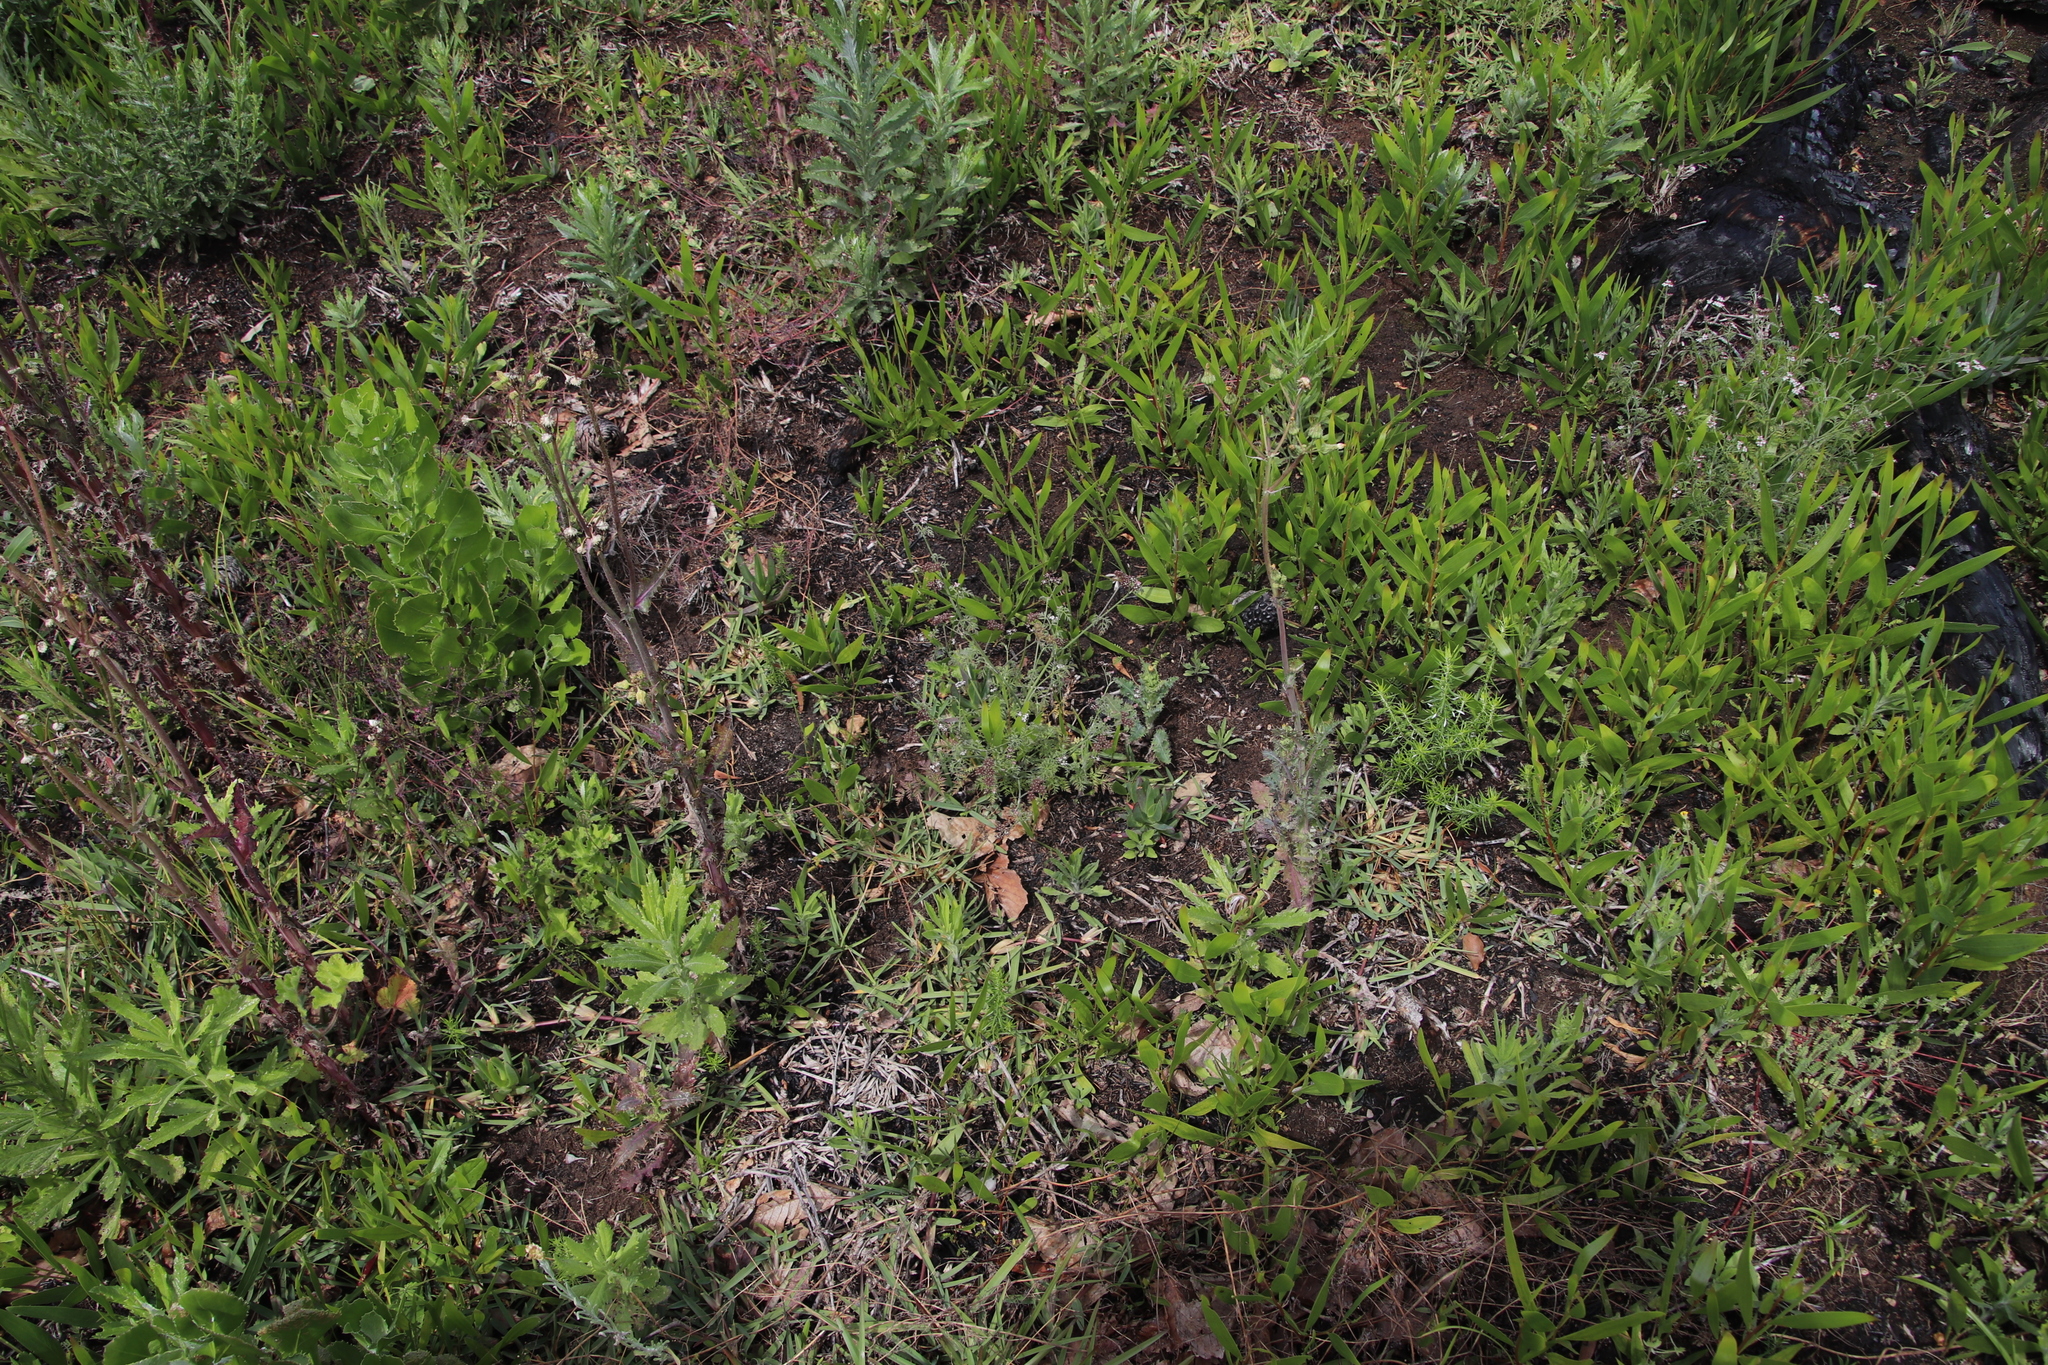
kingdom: Plantae
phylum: Tracheophyta
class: Magnoliopsida
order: Fabales
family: Fabaceae
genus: Acacia
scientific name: Acacia longifolia
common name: Sydney golden wattle
